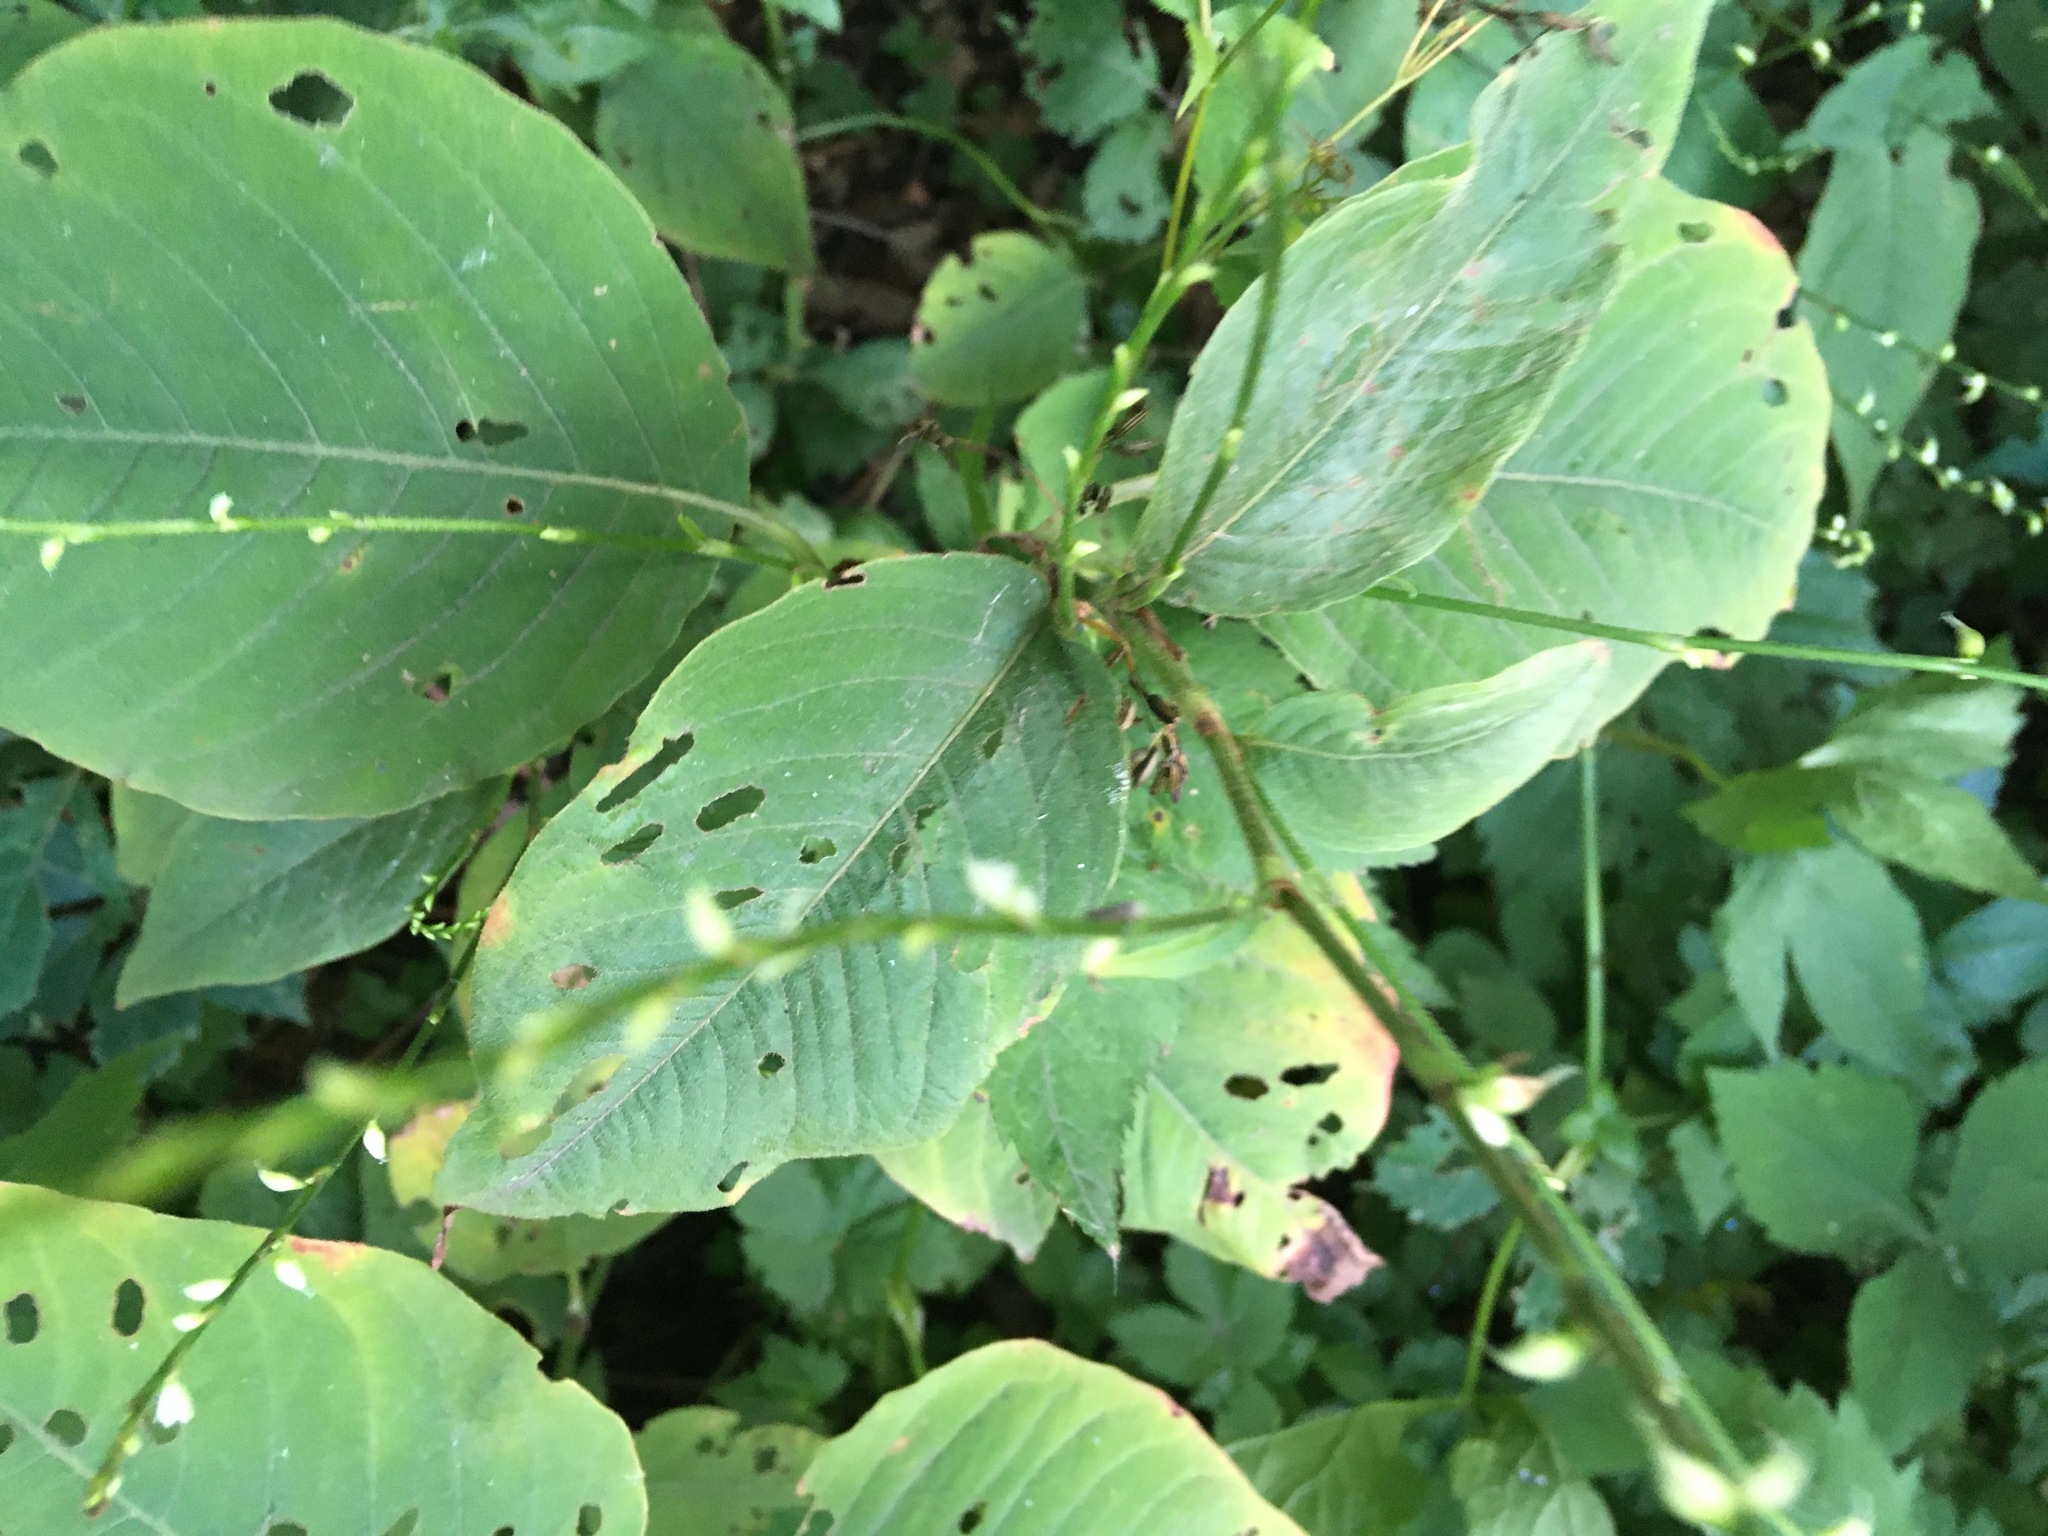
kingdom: Plantae
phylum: Tracheophyta
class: Magnoliopsida
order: Caryophyllales
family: Polygonaceae
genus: Persicaria
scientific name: Persicaria virginiana
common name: Jumpseed
